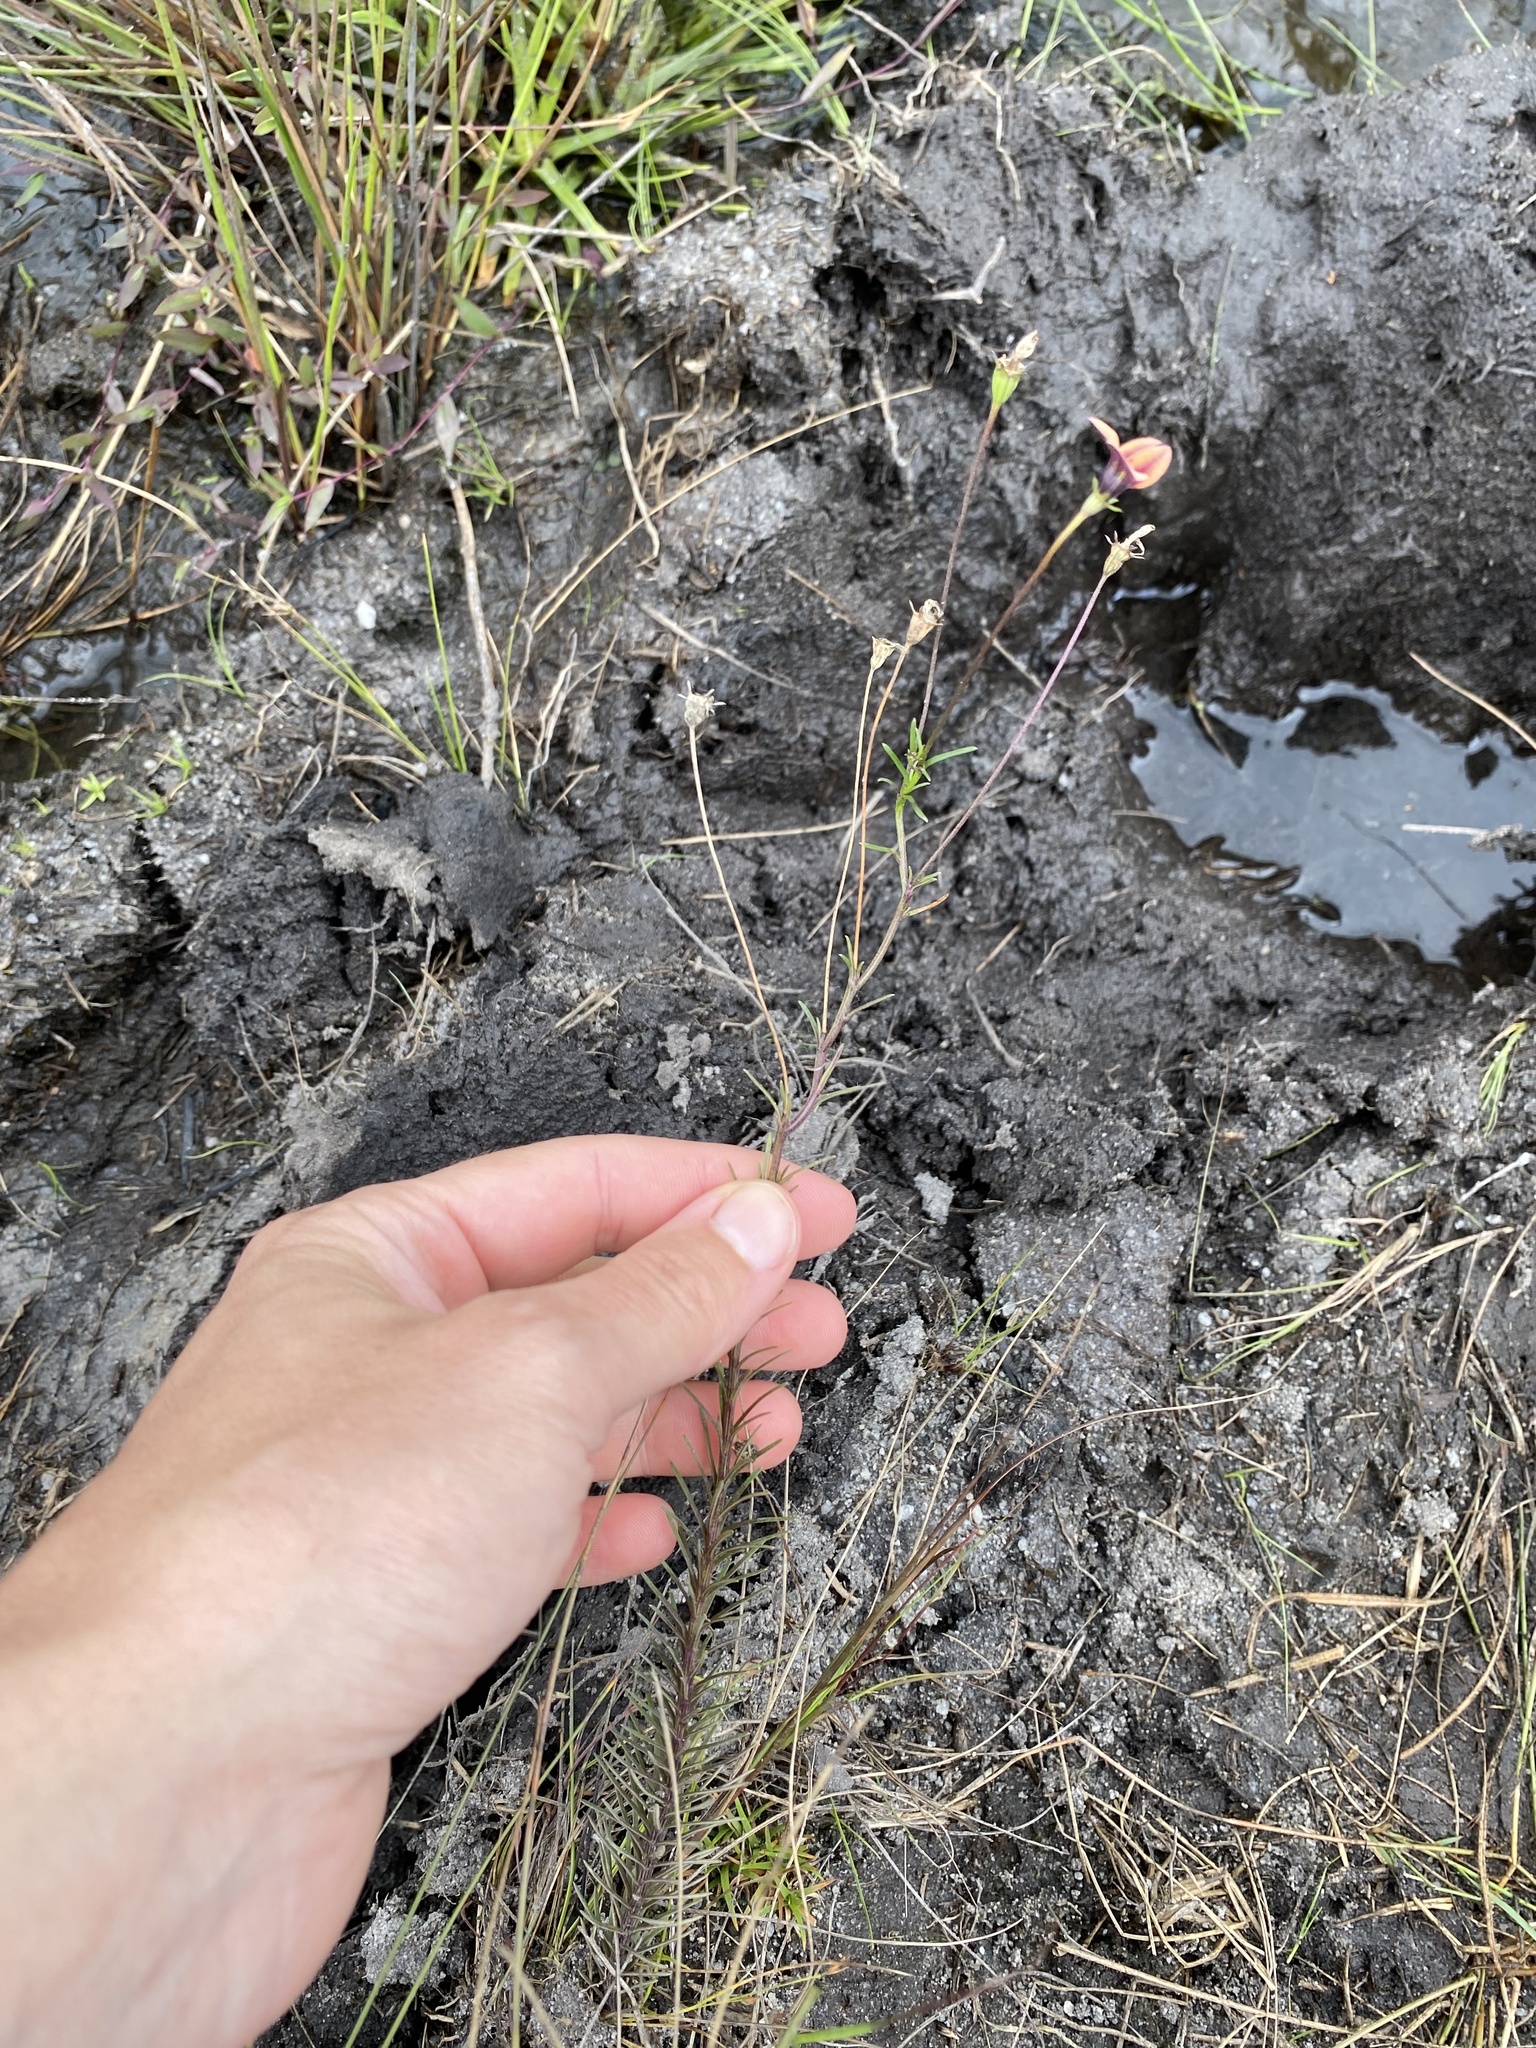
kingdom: Plantae
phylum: Tracheophyta
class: Magnoliopsida
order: Asterales
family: Campanulaceae
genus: Monopsis
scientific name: Monopsis unidentata
